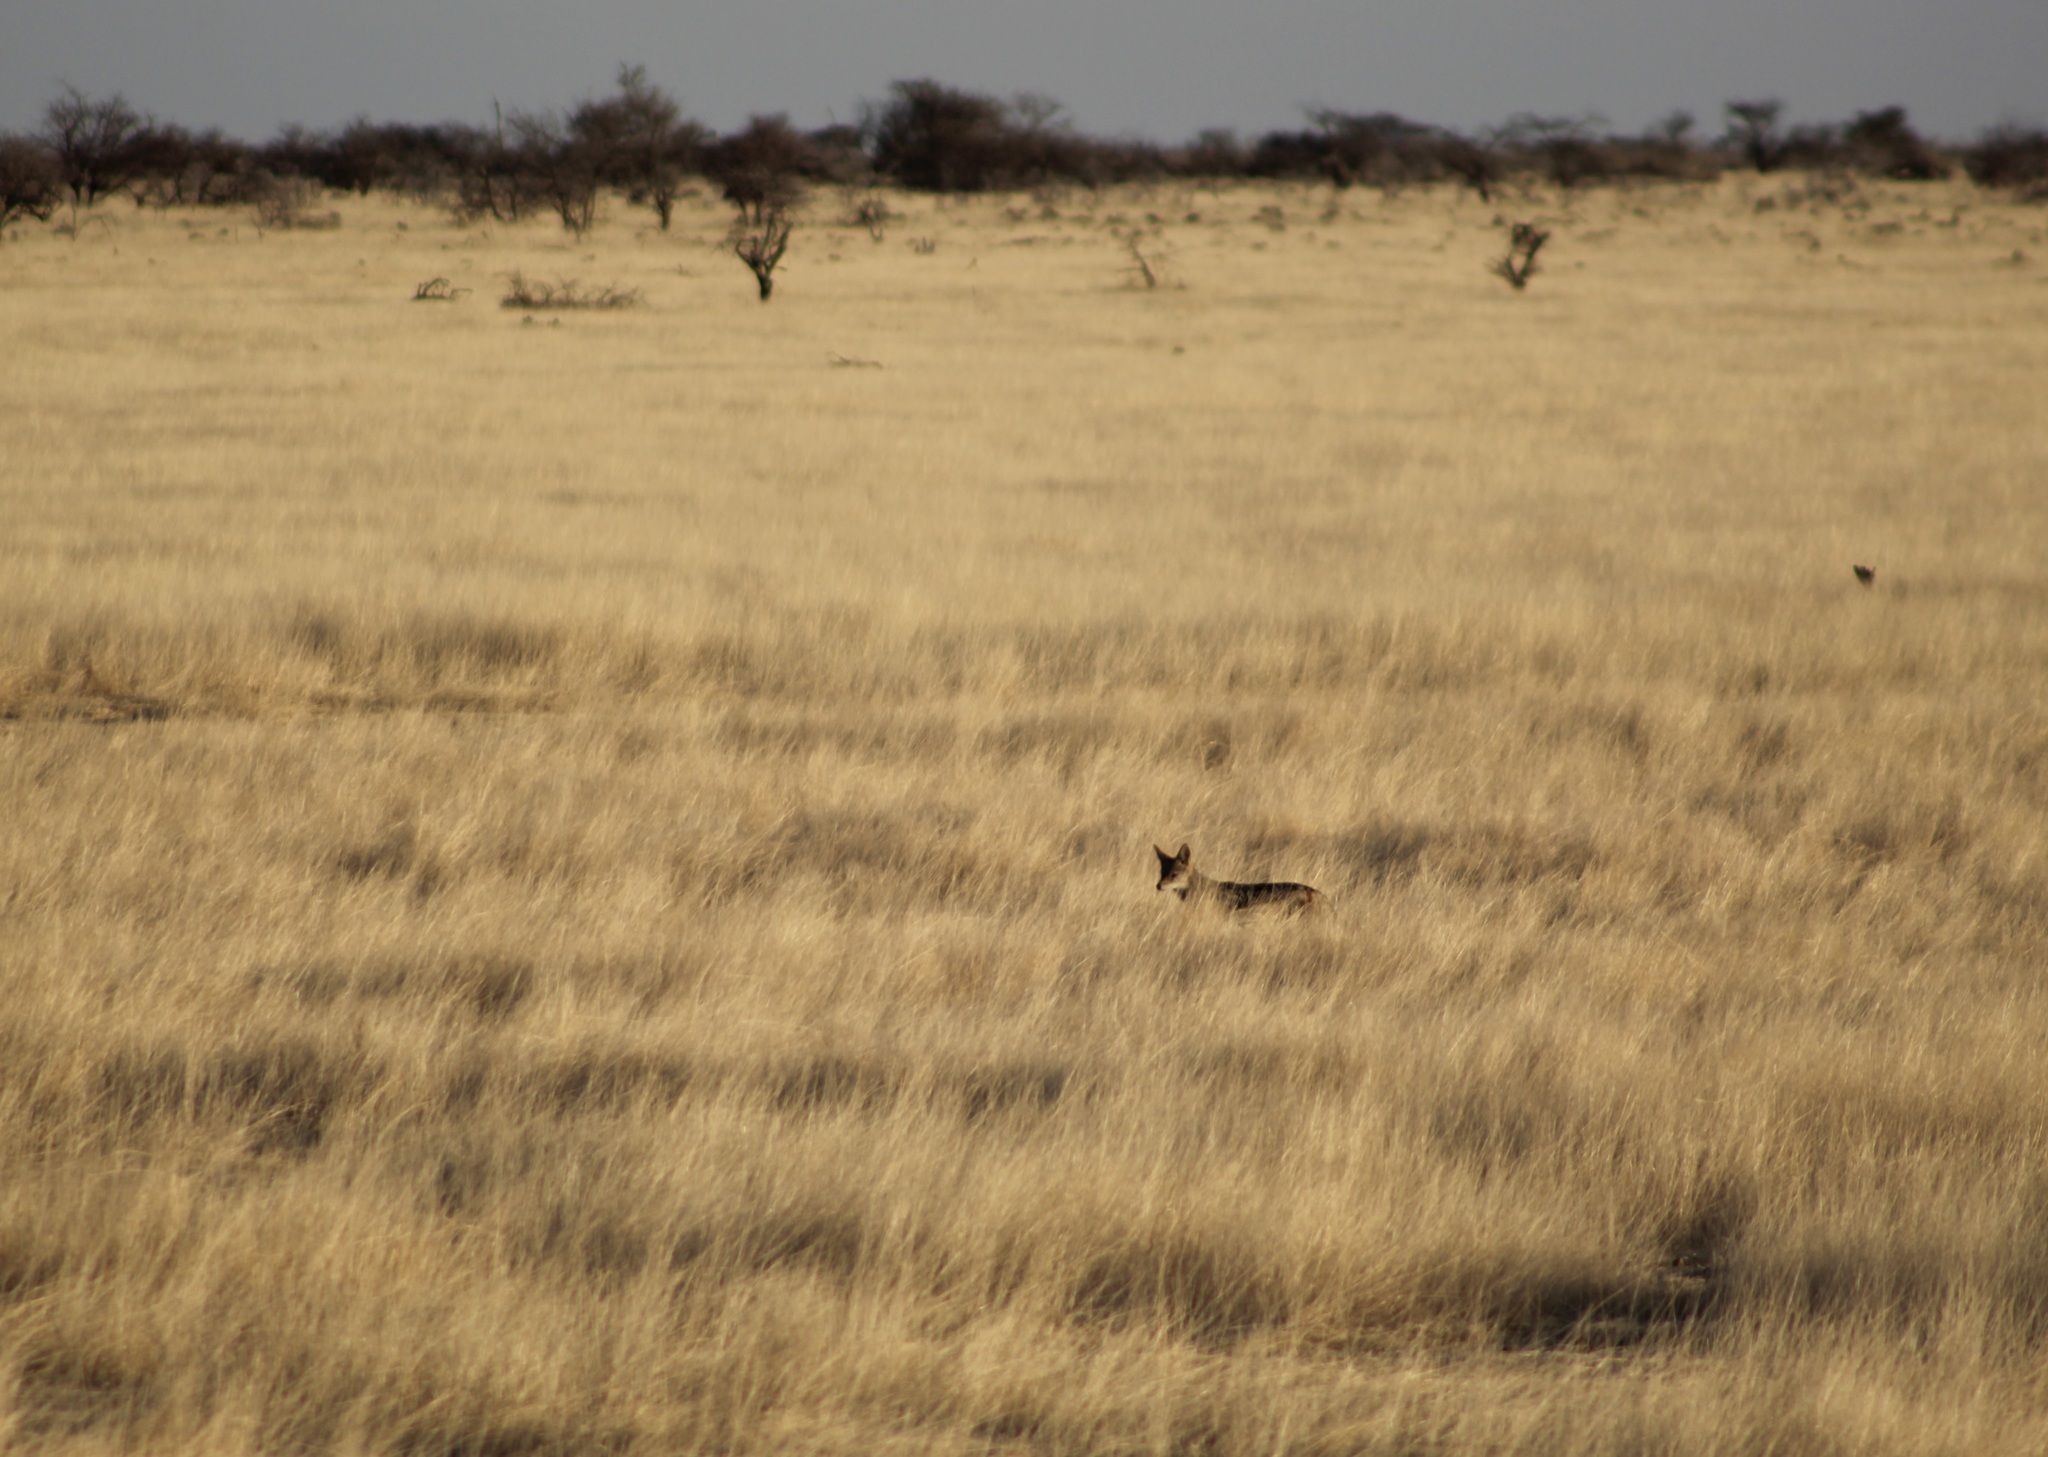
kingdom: Animalia
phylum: Chordata
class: Mammalia
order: Carnivora
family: Canidae
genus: Lupulella
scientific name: Lupulella
